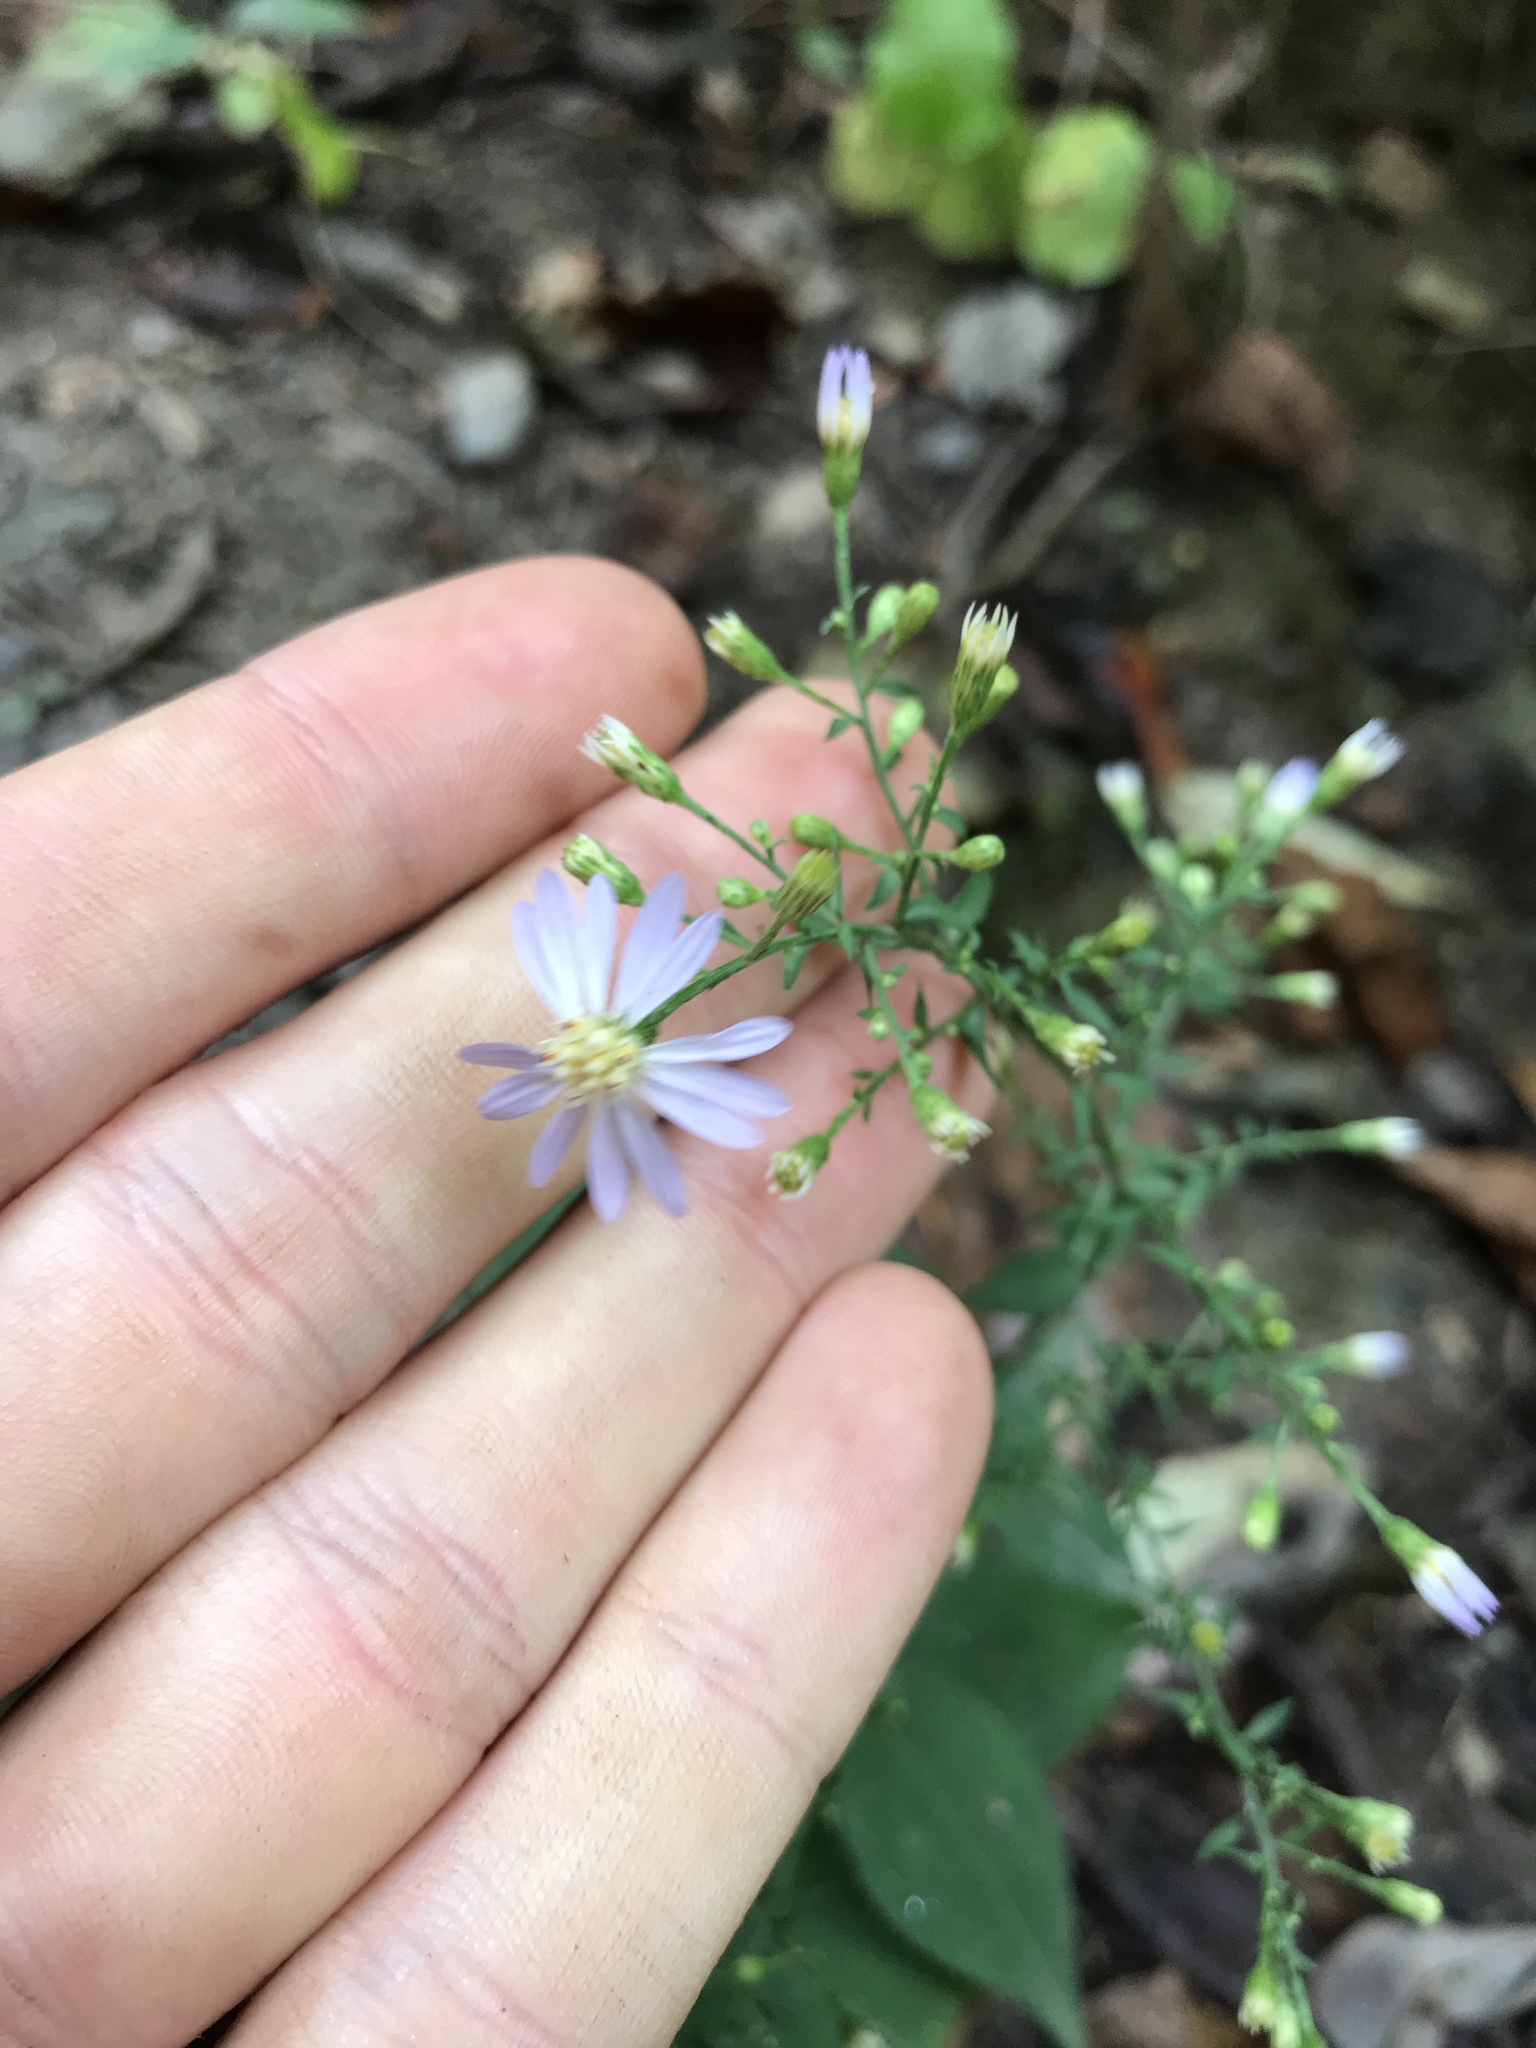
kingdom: Plantae
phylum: Tracheophyta
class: Magnoliopsida
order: Asterales
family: Asteraceae
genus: Symphyotrichum
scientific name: Symphyotrichum cordifolium
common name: Beeweed
